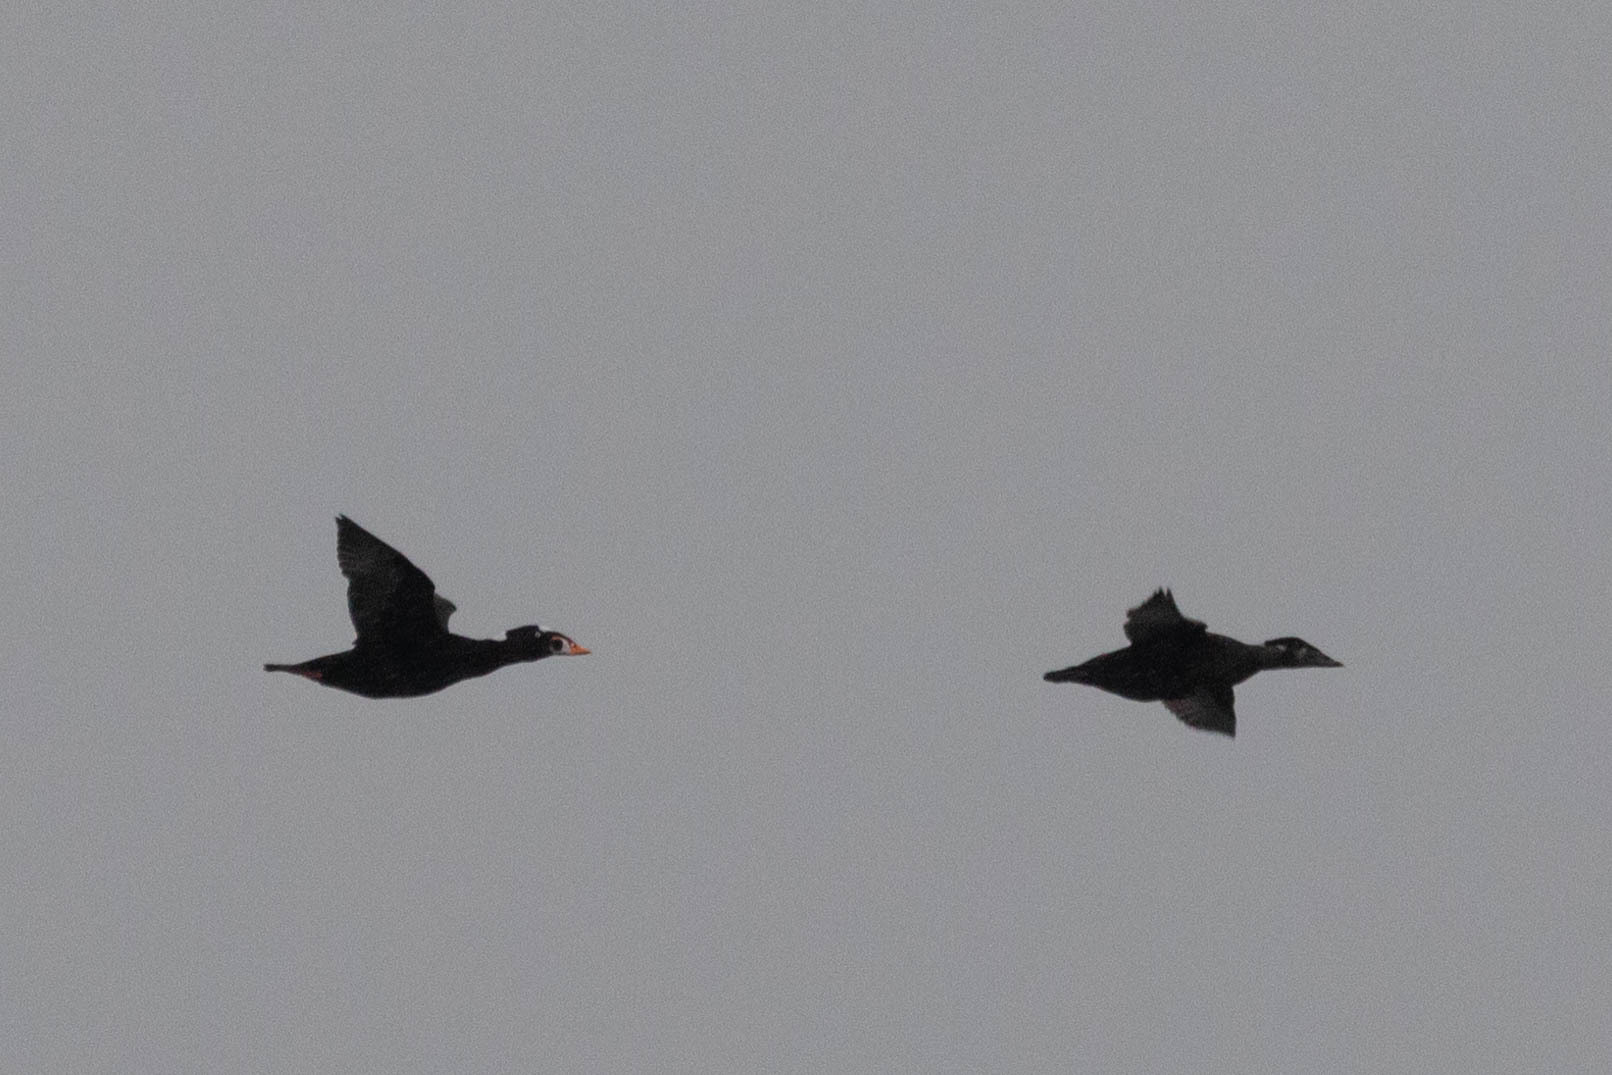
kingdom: Animalia
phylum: Chordata
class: Aves
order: Anseriformes
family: Anatidae
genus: Melanitta
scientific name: Melanitta perspicillata
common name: Surf scoter
